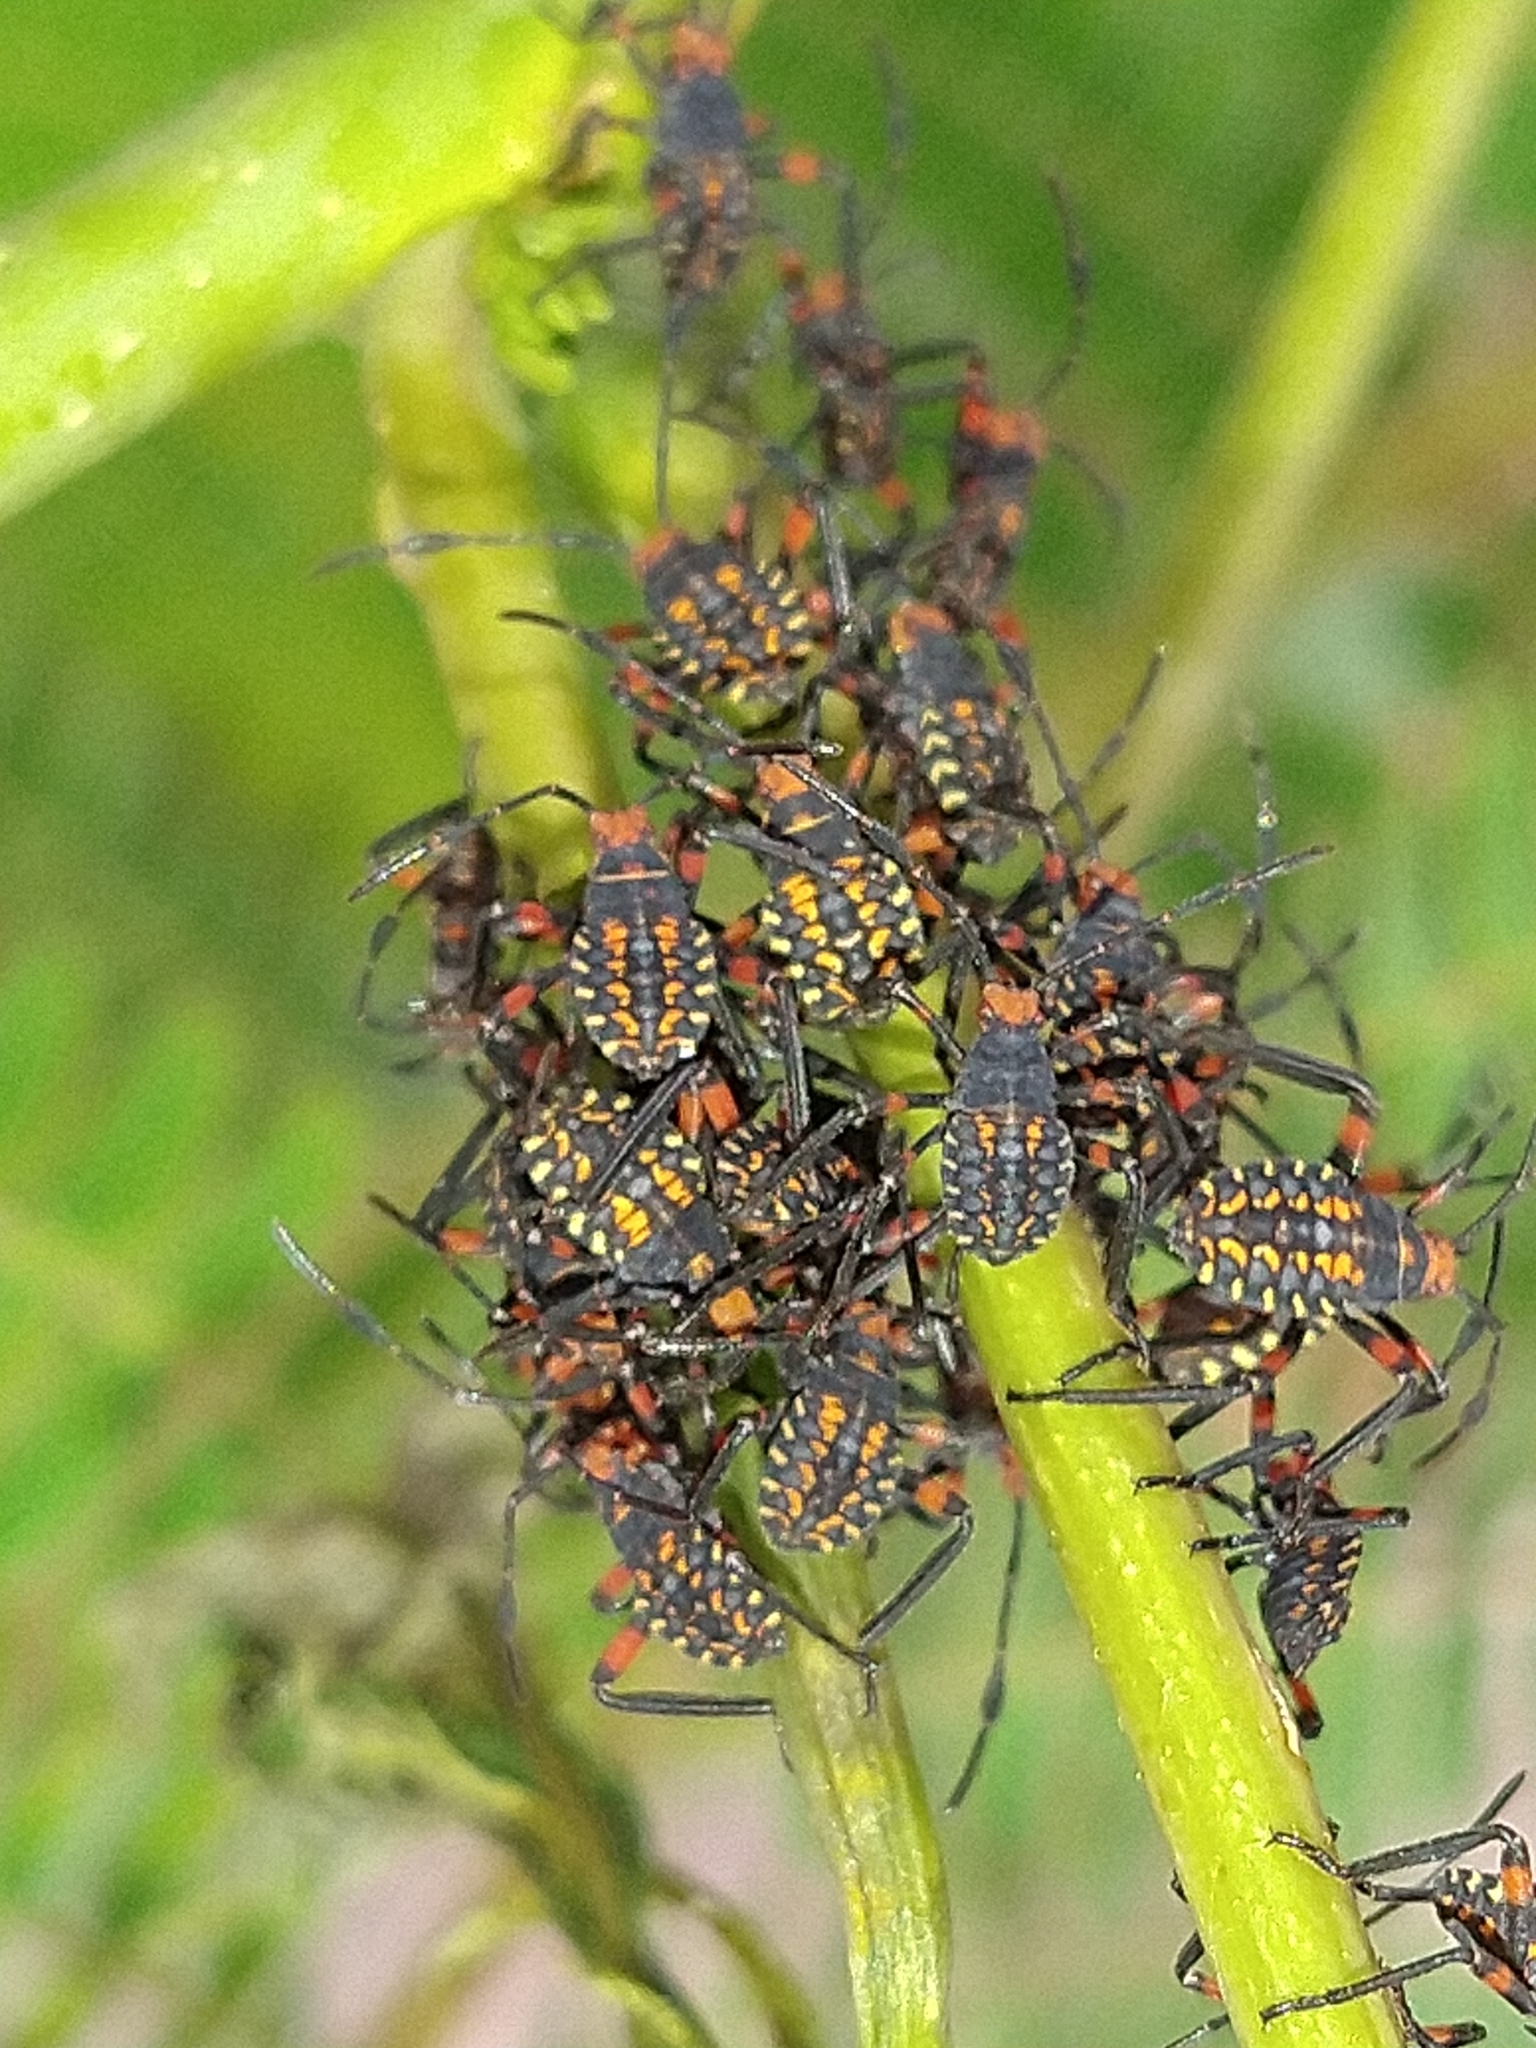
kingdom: Animalia
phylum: Arthropoda
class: Insecta
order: Hemiptera
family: Coreidae
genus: Pachylis
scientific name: Pachylis argentinus
